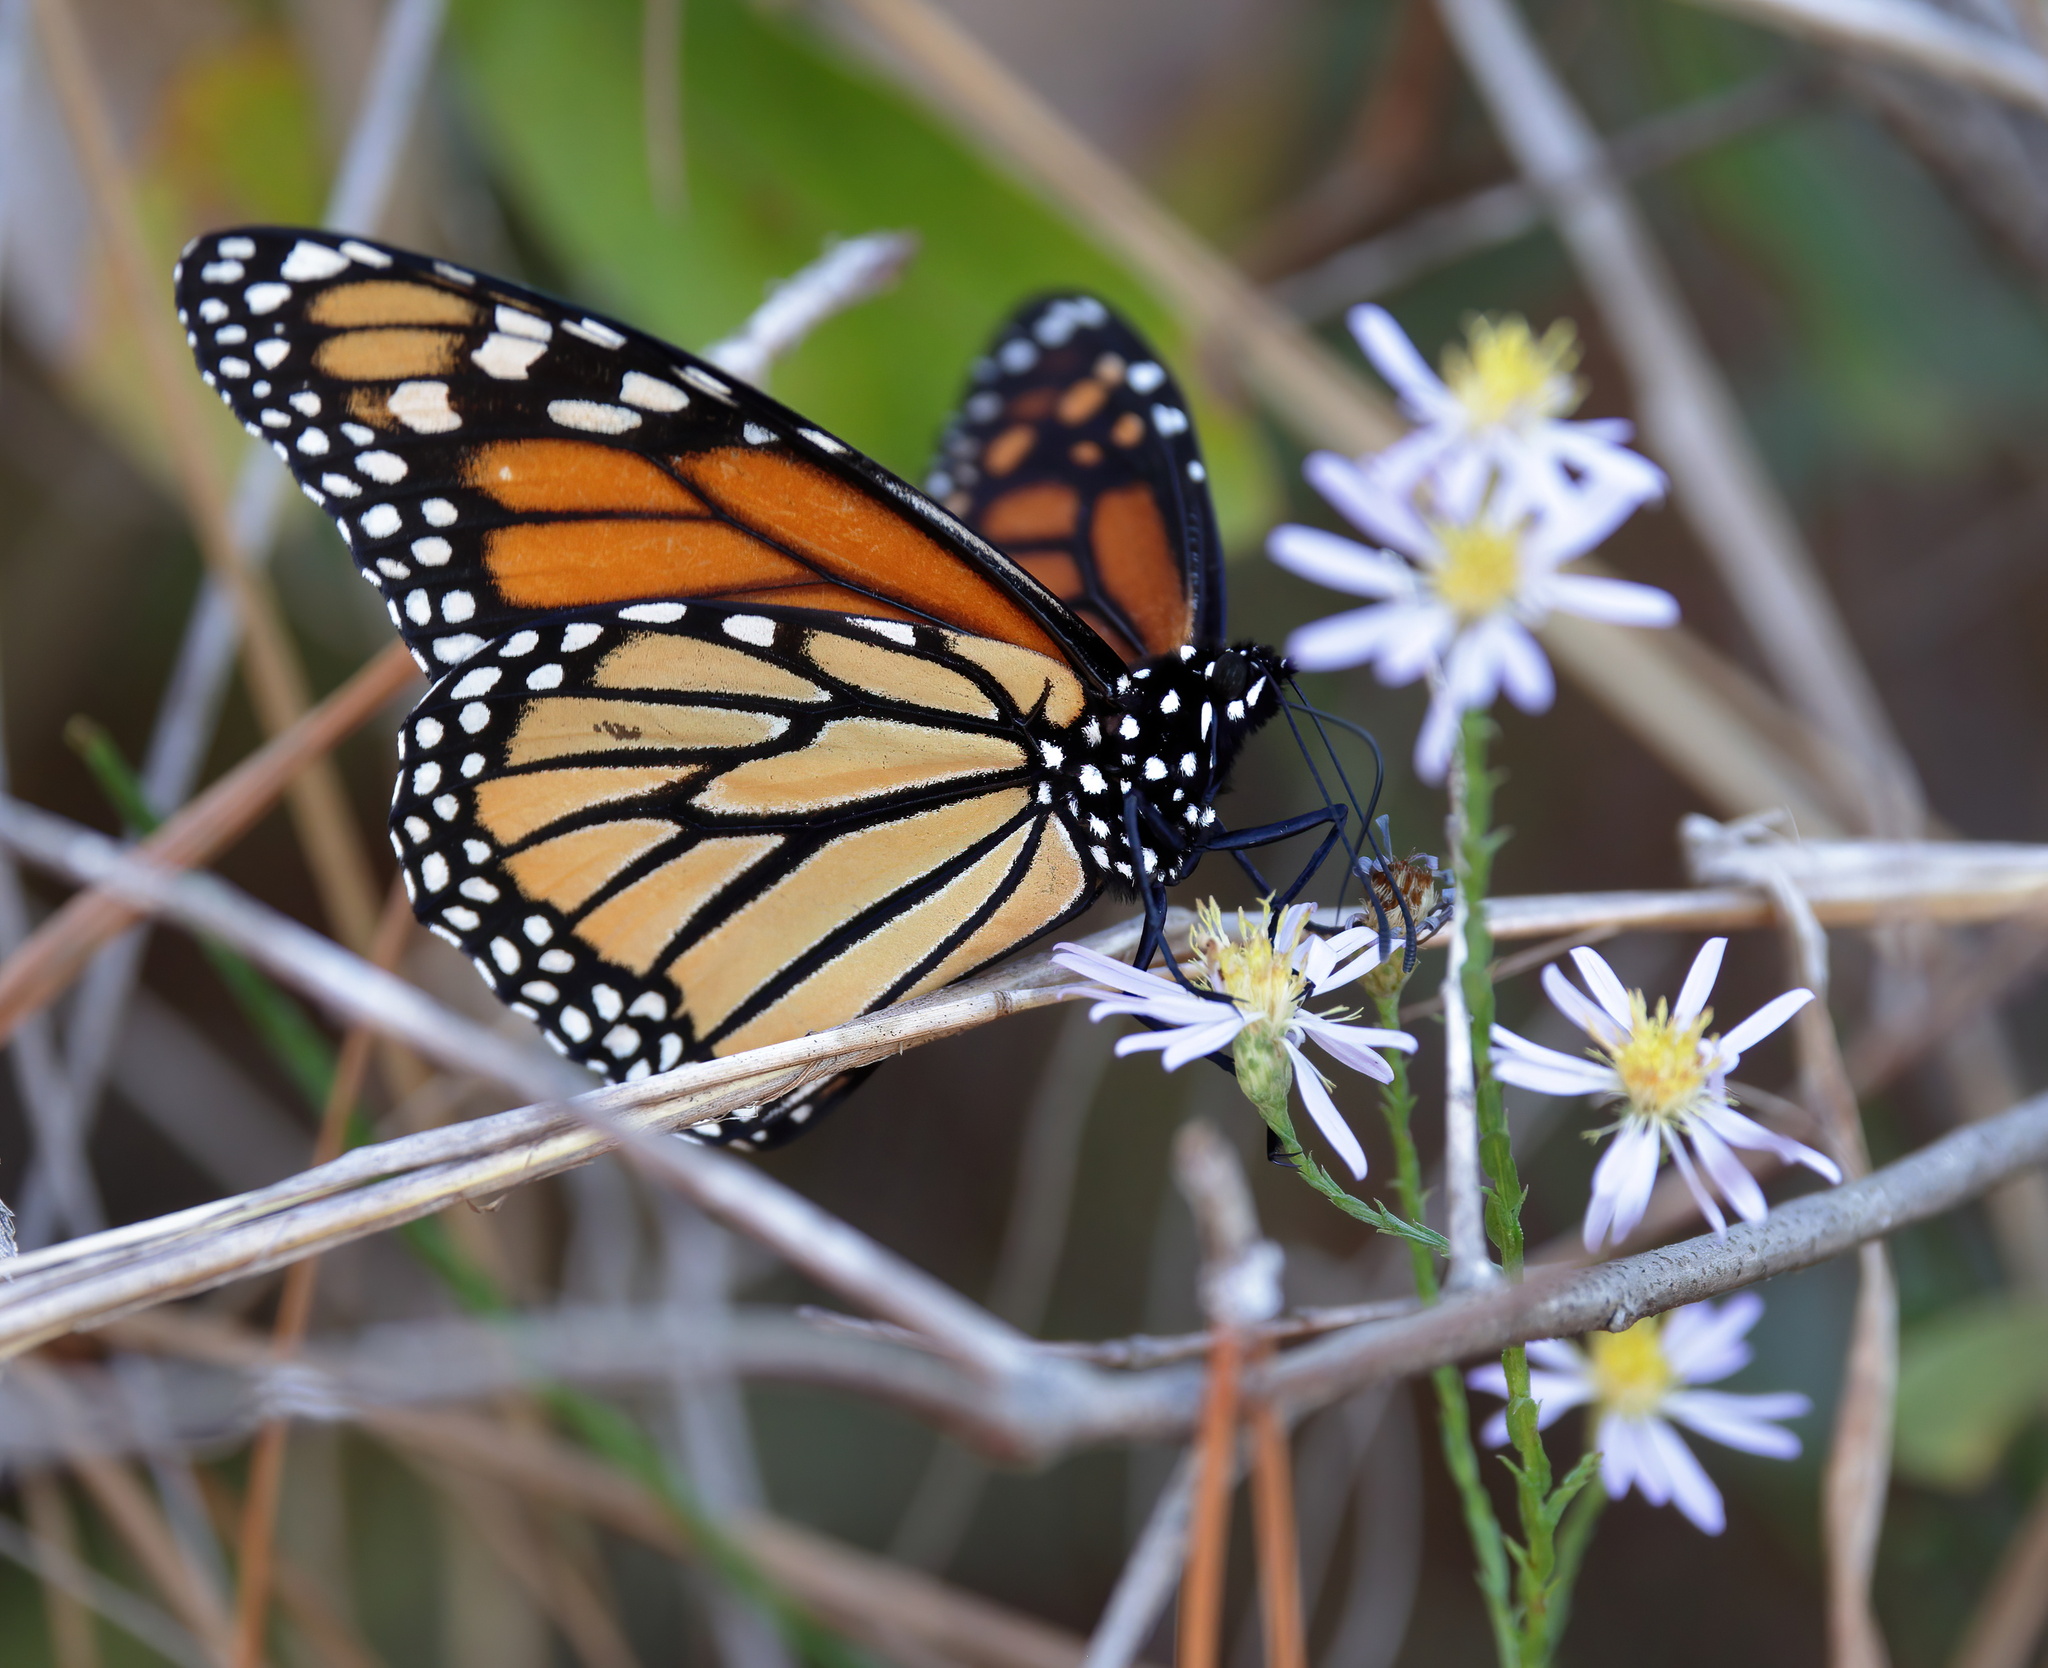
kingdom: Animalia
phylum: Arthropoda
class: Insecta
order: Lepidoptera
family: Nymphalidae
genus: Danaus
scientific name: Danaus plexippus
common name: Monarch
